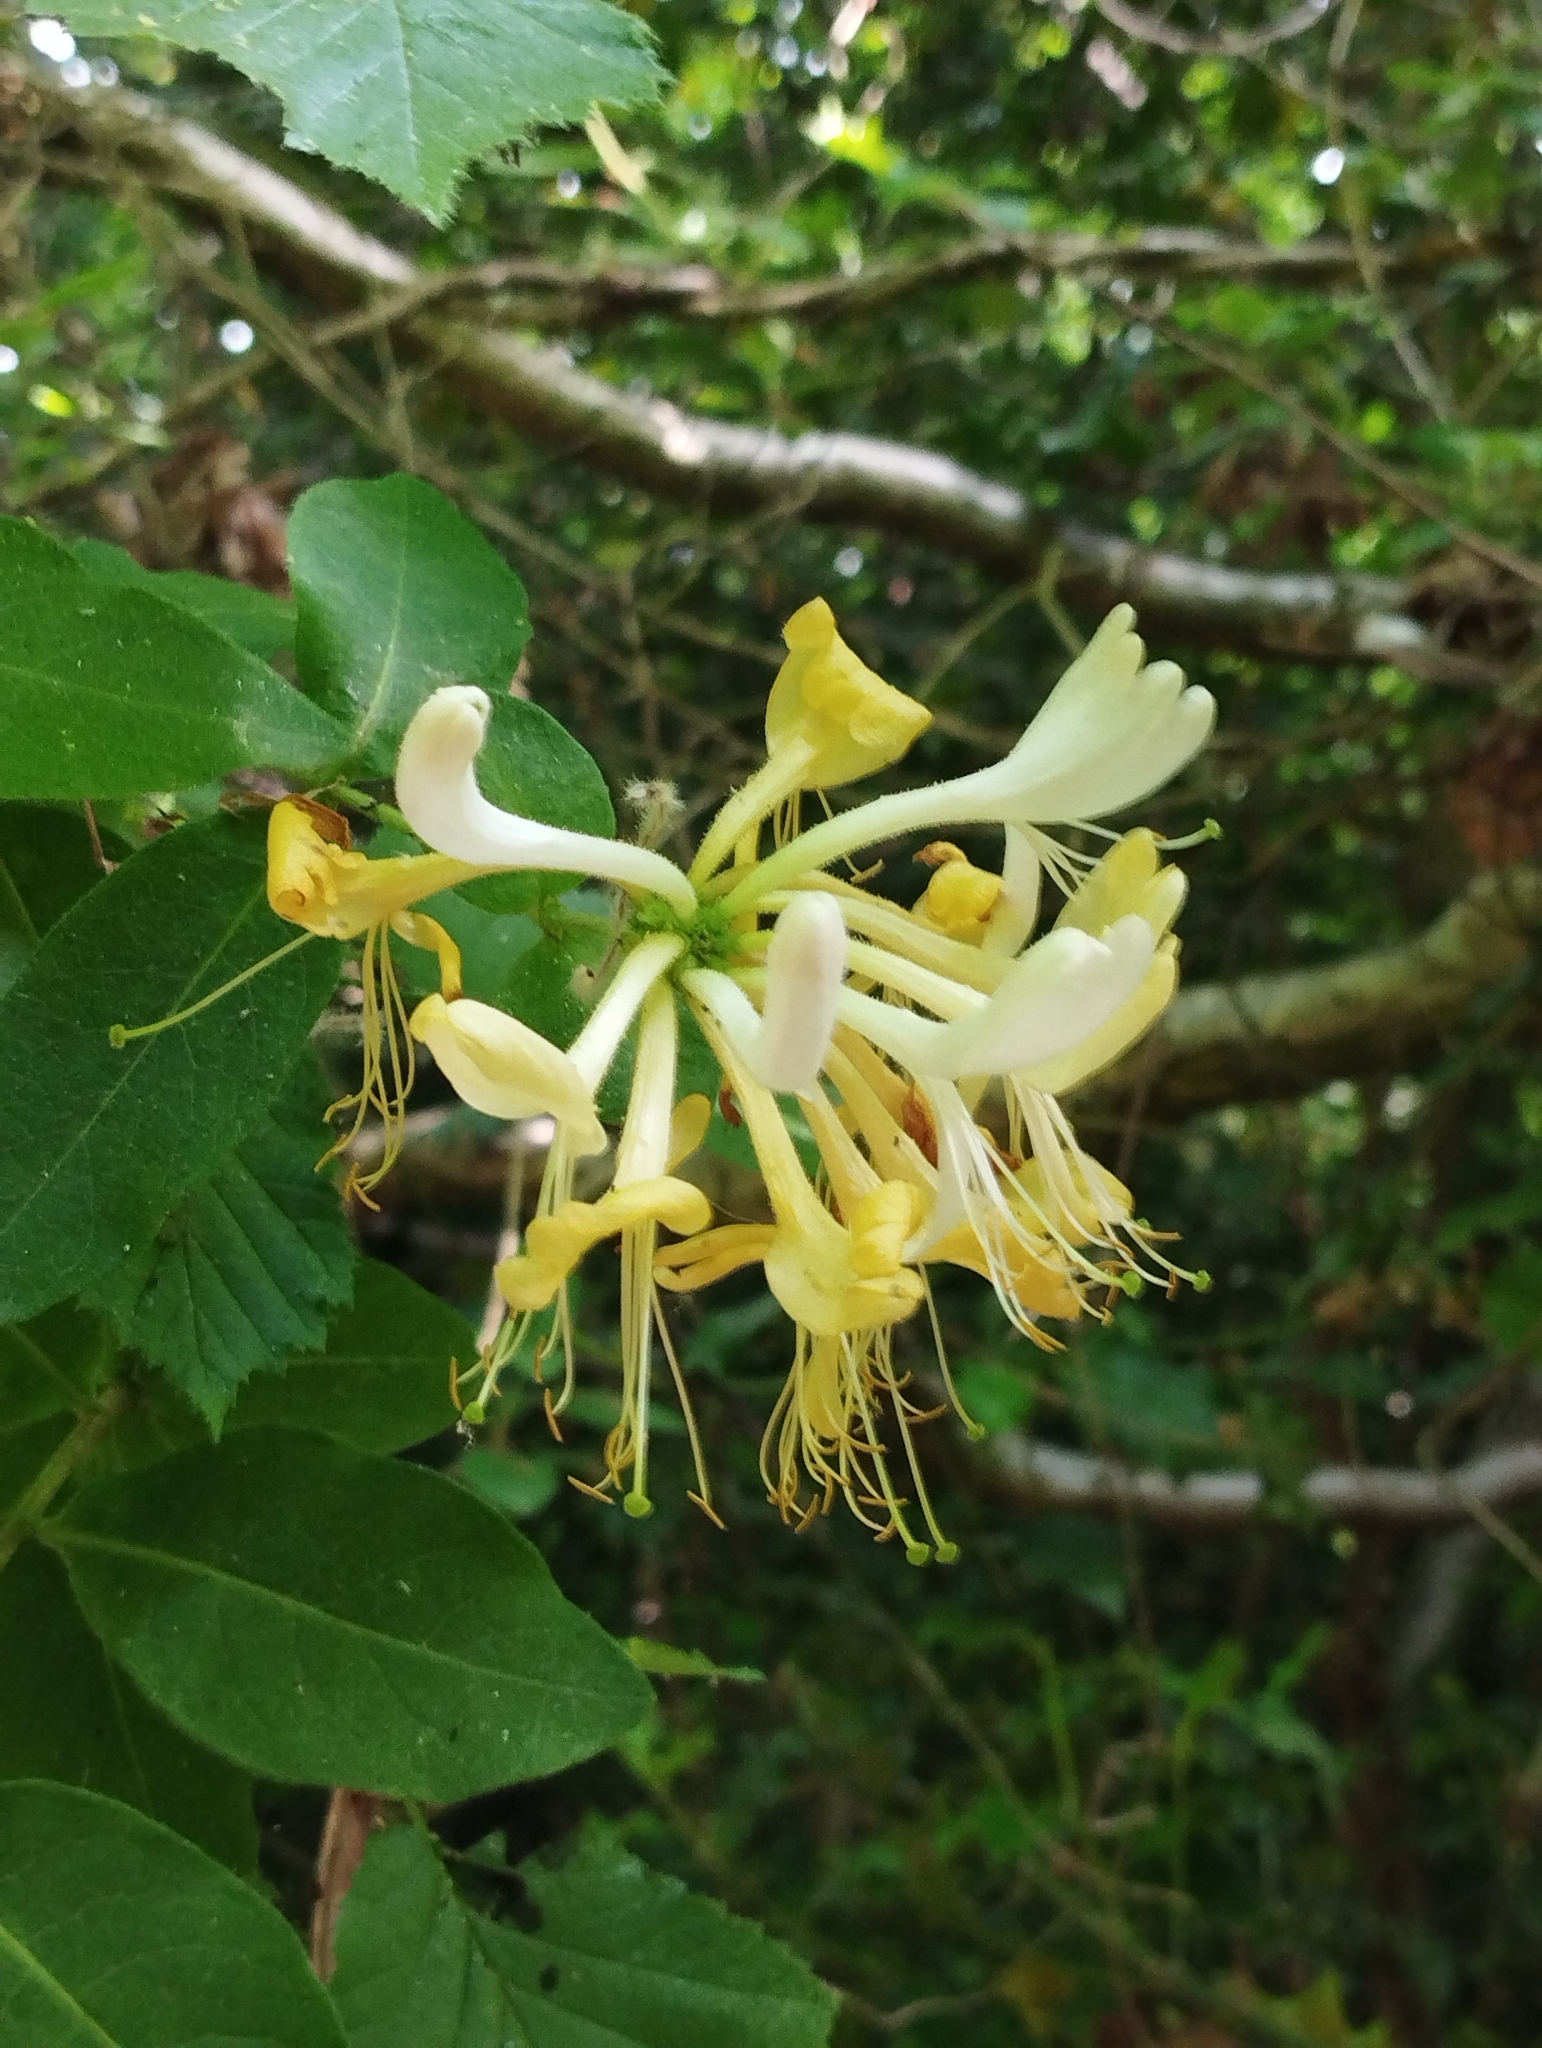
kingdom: Plantae
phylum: Tracheophyta
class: Magnoliopsida
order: Dipsacales
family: Caprifoliaceae
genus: Lonicera
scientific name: Lonicera periclymenum
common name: European honeysuckle
